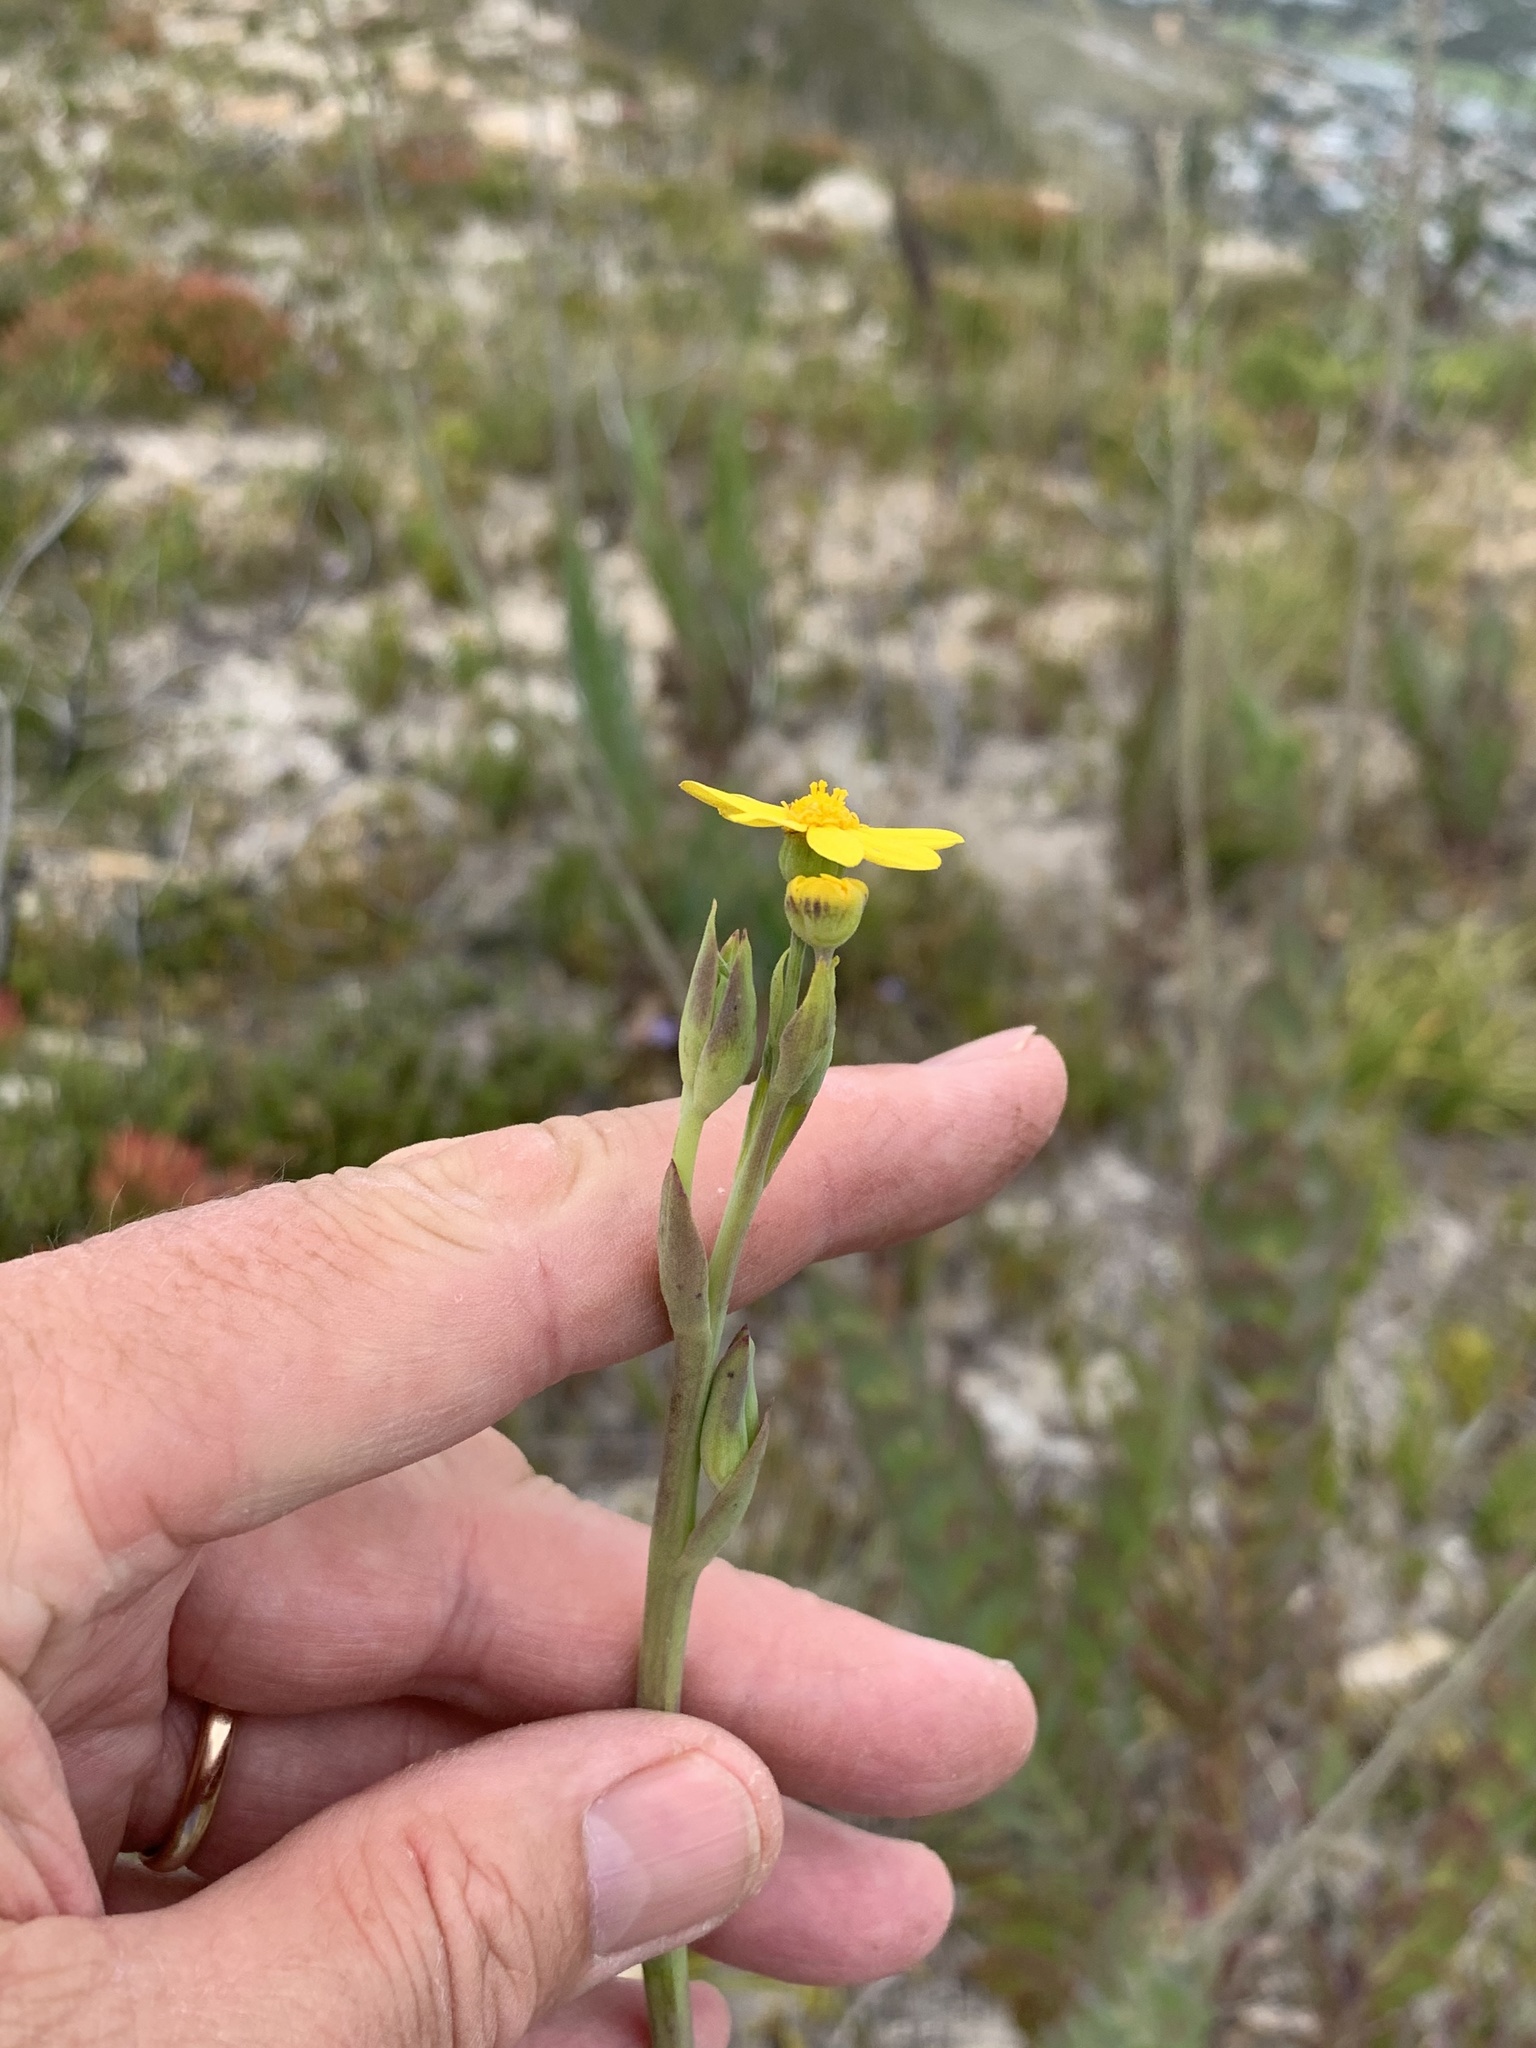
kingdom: Plantae
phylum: Tracheophyta
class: Magnoliopsida
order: Asterales
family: Asteraceae
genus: Othonna
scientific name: Othonna quinquedentata
